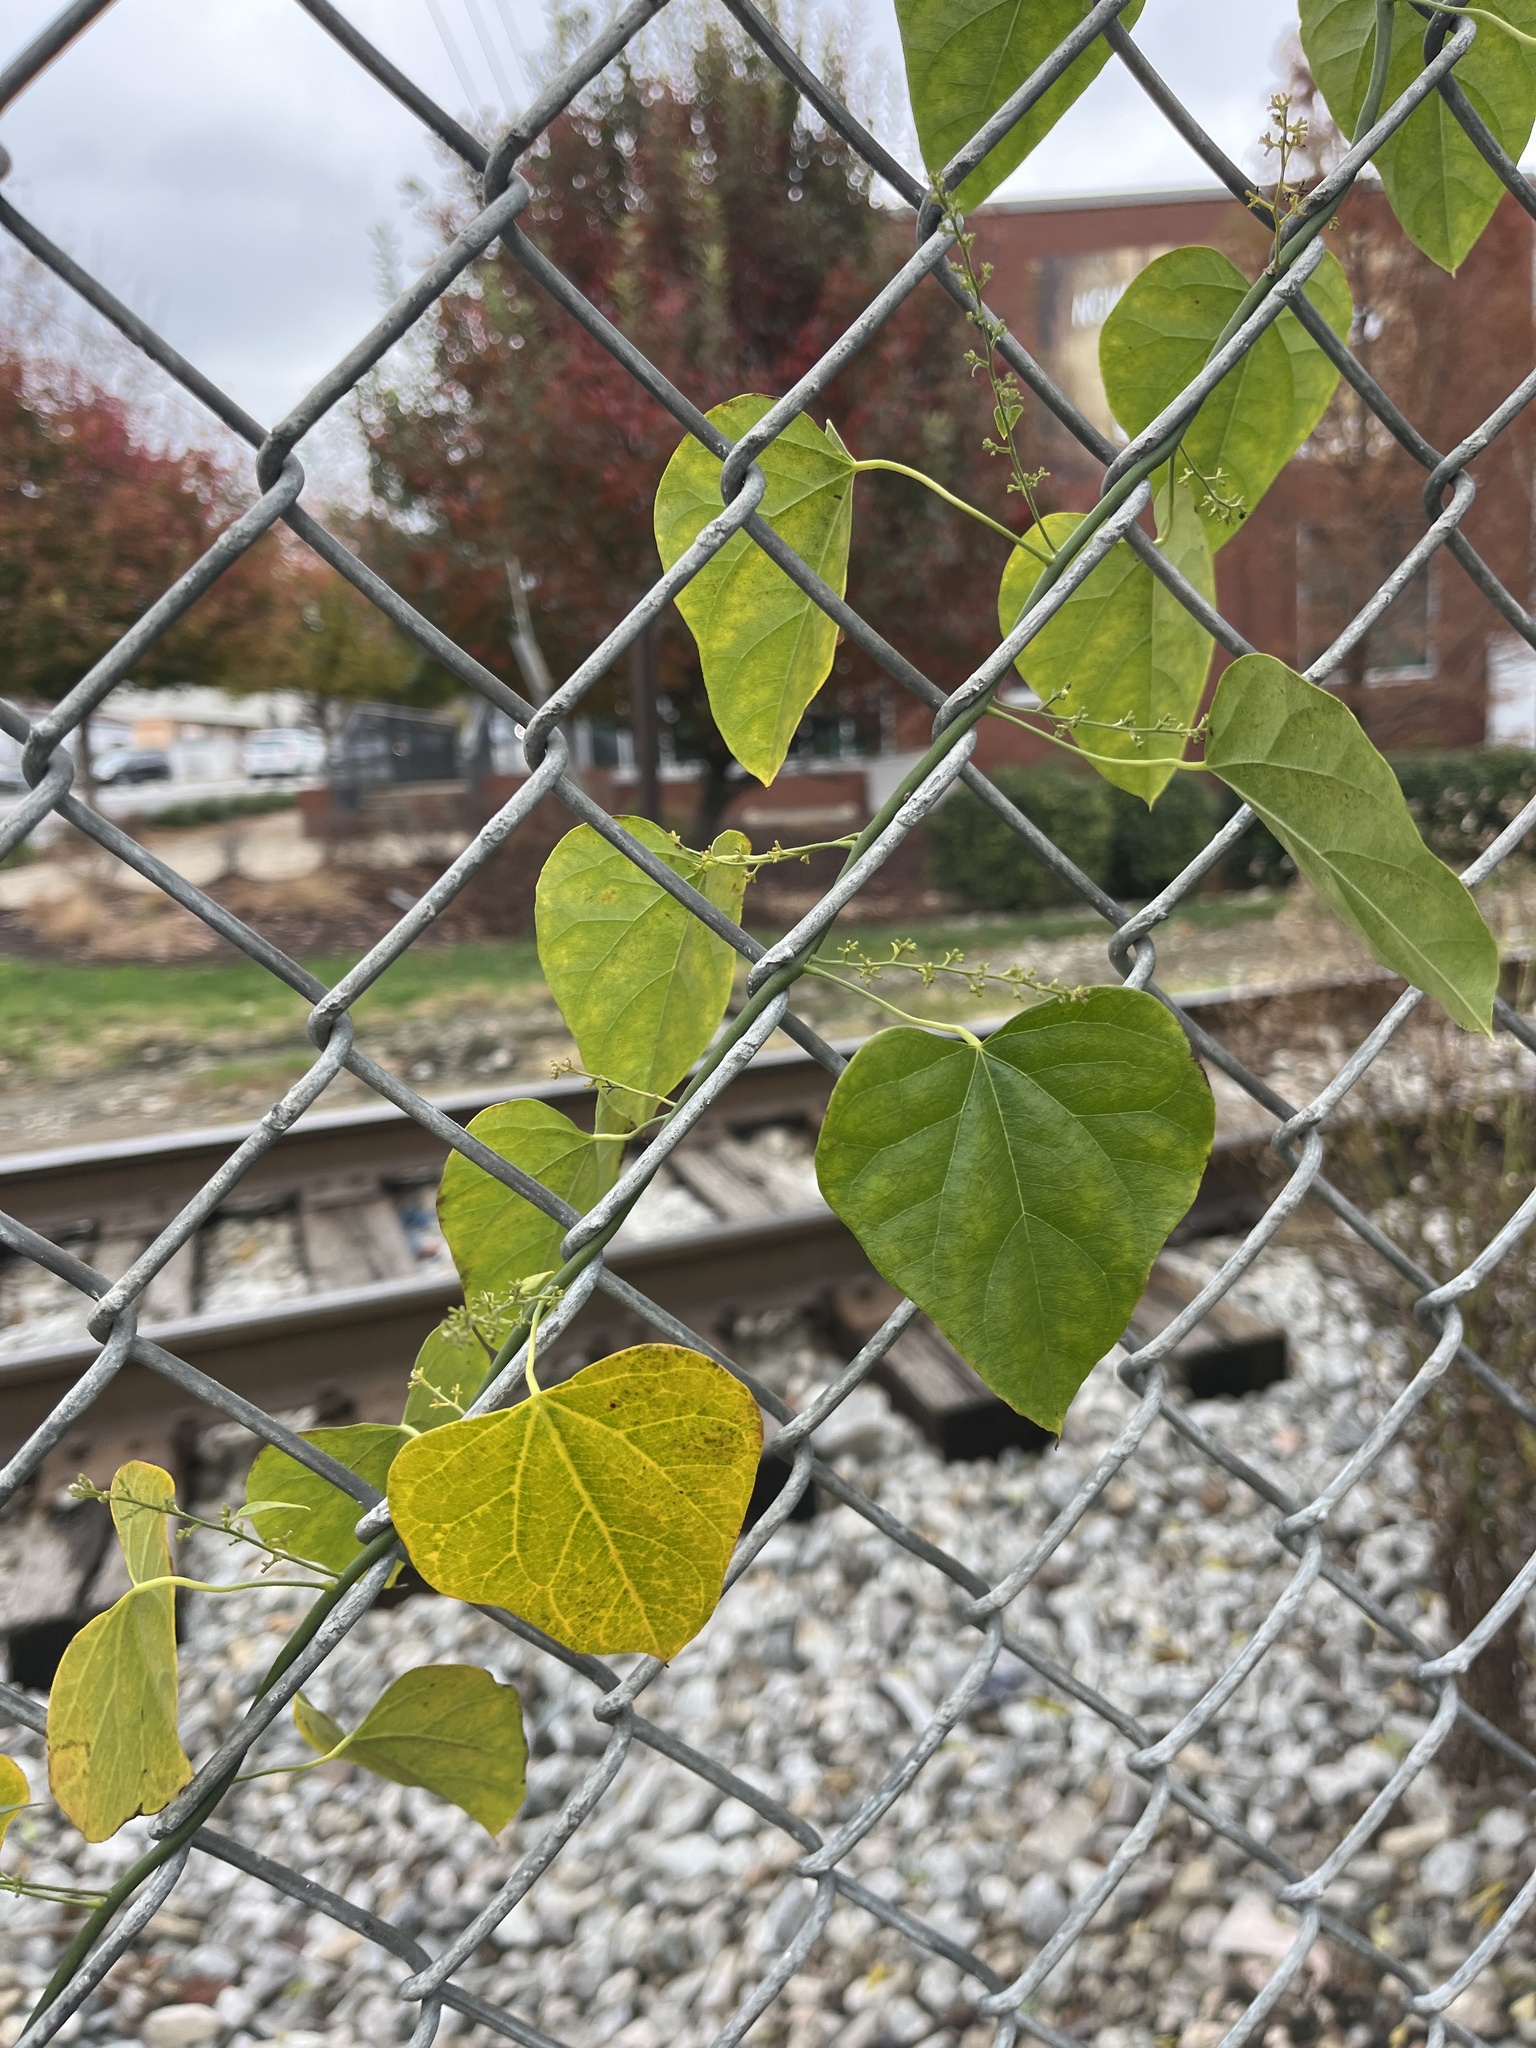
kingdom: Plantae
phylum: Tracheophyta
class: Magnoliopsida
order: Ranunculales
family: Menispermaceae
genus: Cocculus
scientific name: Cocculus carolinus
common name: Carolina moonseed
